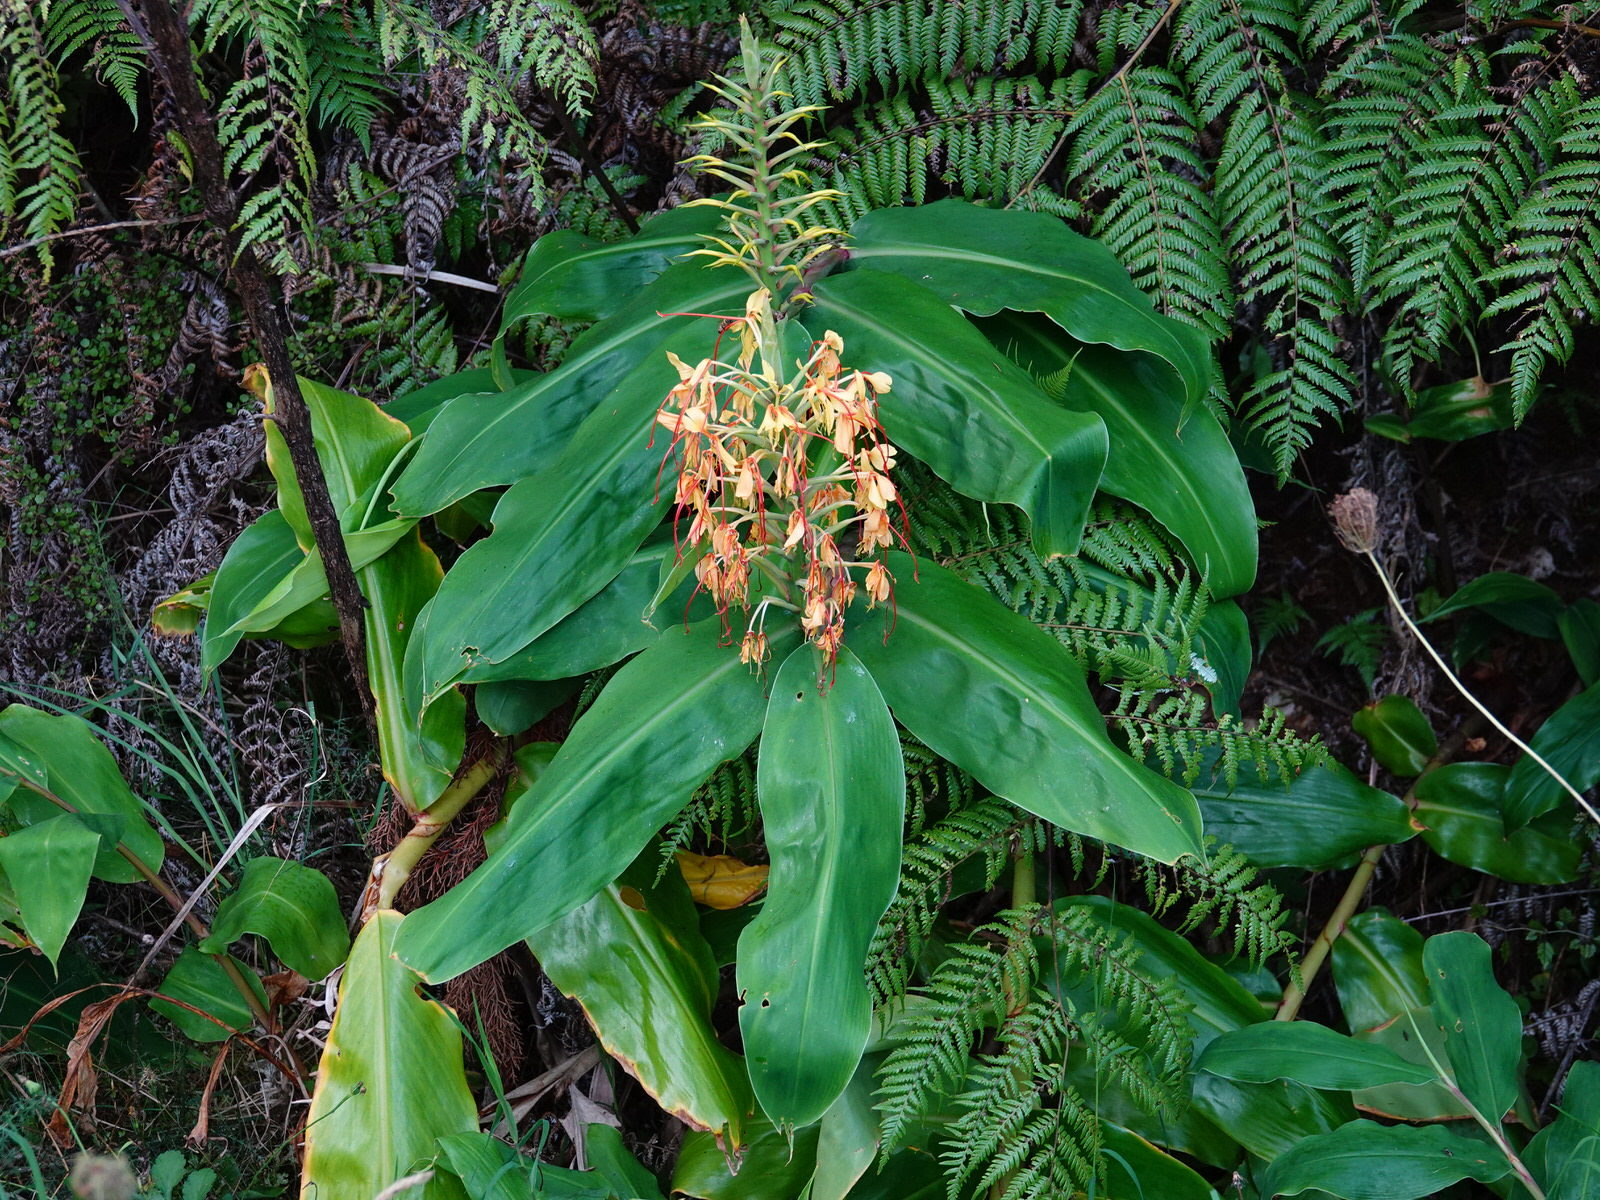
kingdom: Plantae
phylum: Tracheophyta
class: Liliopsida
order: Zingiberales
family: Zingiberaceae
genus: Hedychium
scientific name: Hedychium gardnerianum
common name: Himalayan ginger
